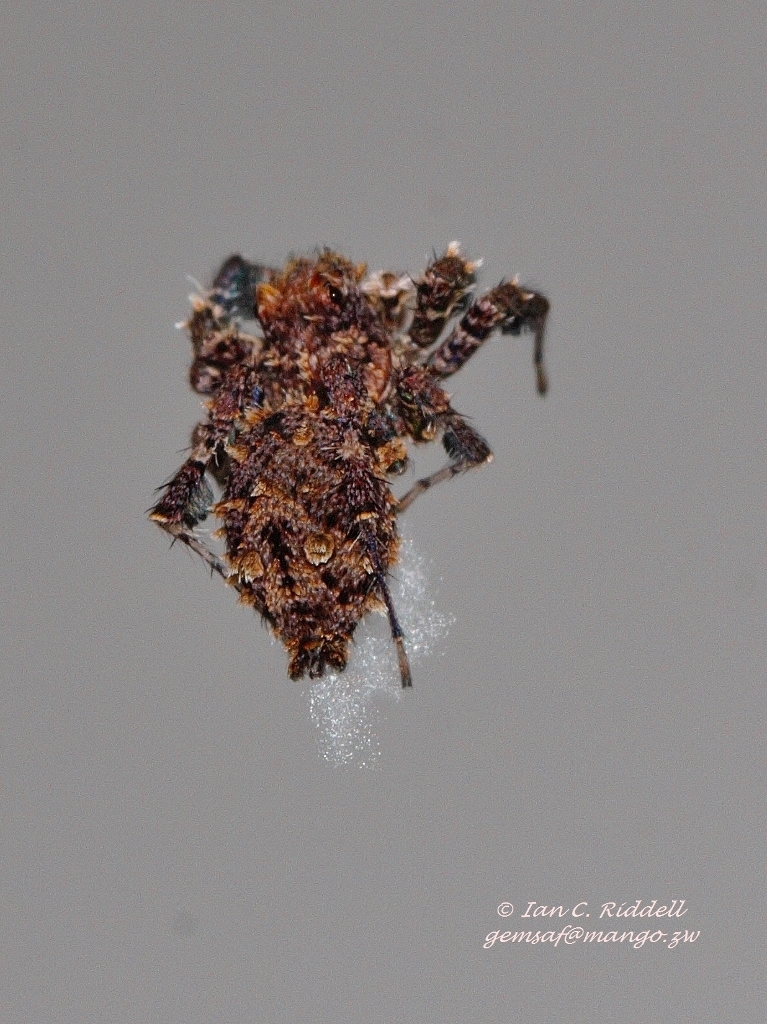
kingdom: Animalia
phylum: Arthropoda
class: Arachnida
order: Araneae
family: Salticidae
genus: Portia
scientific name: Portia schultzi
